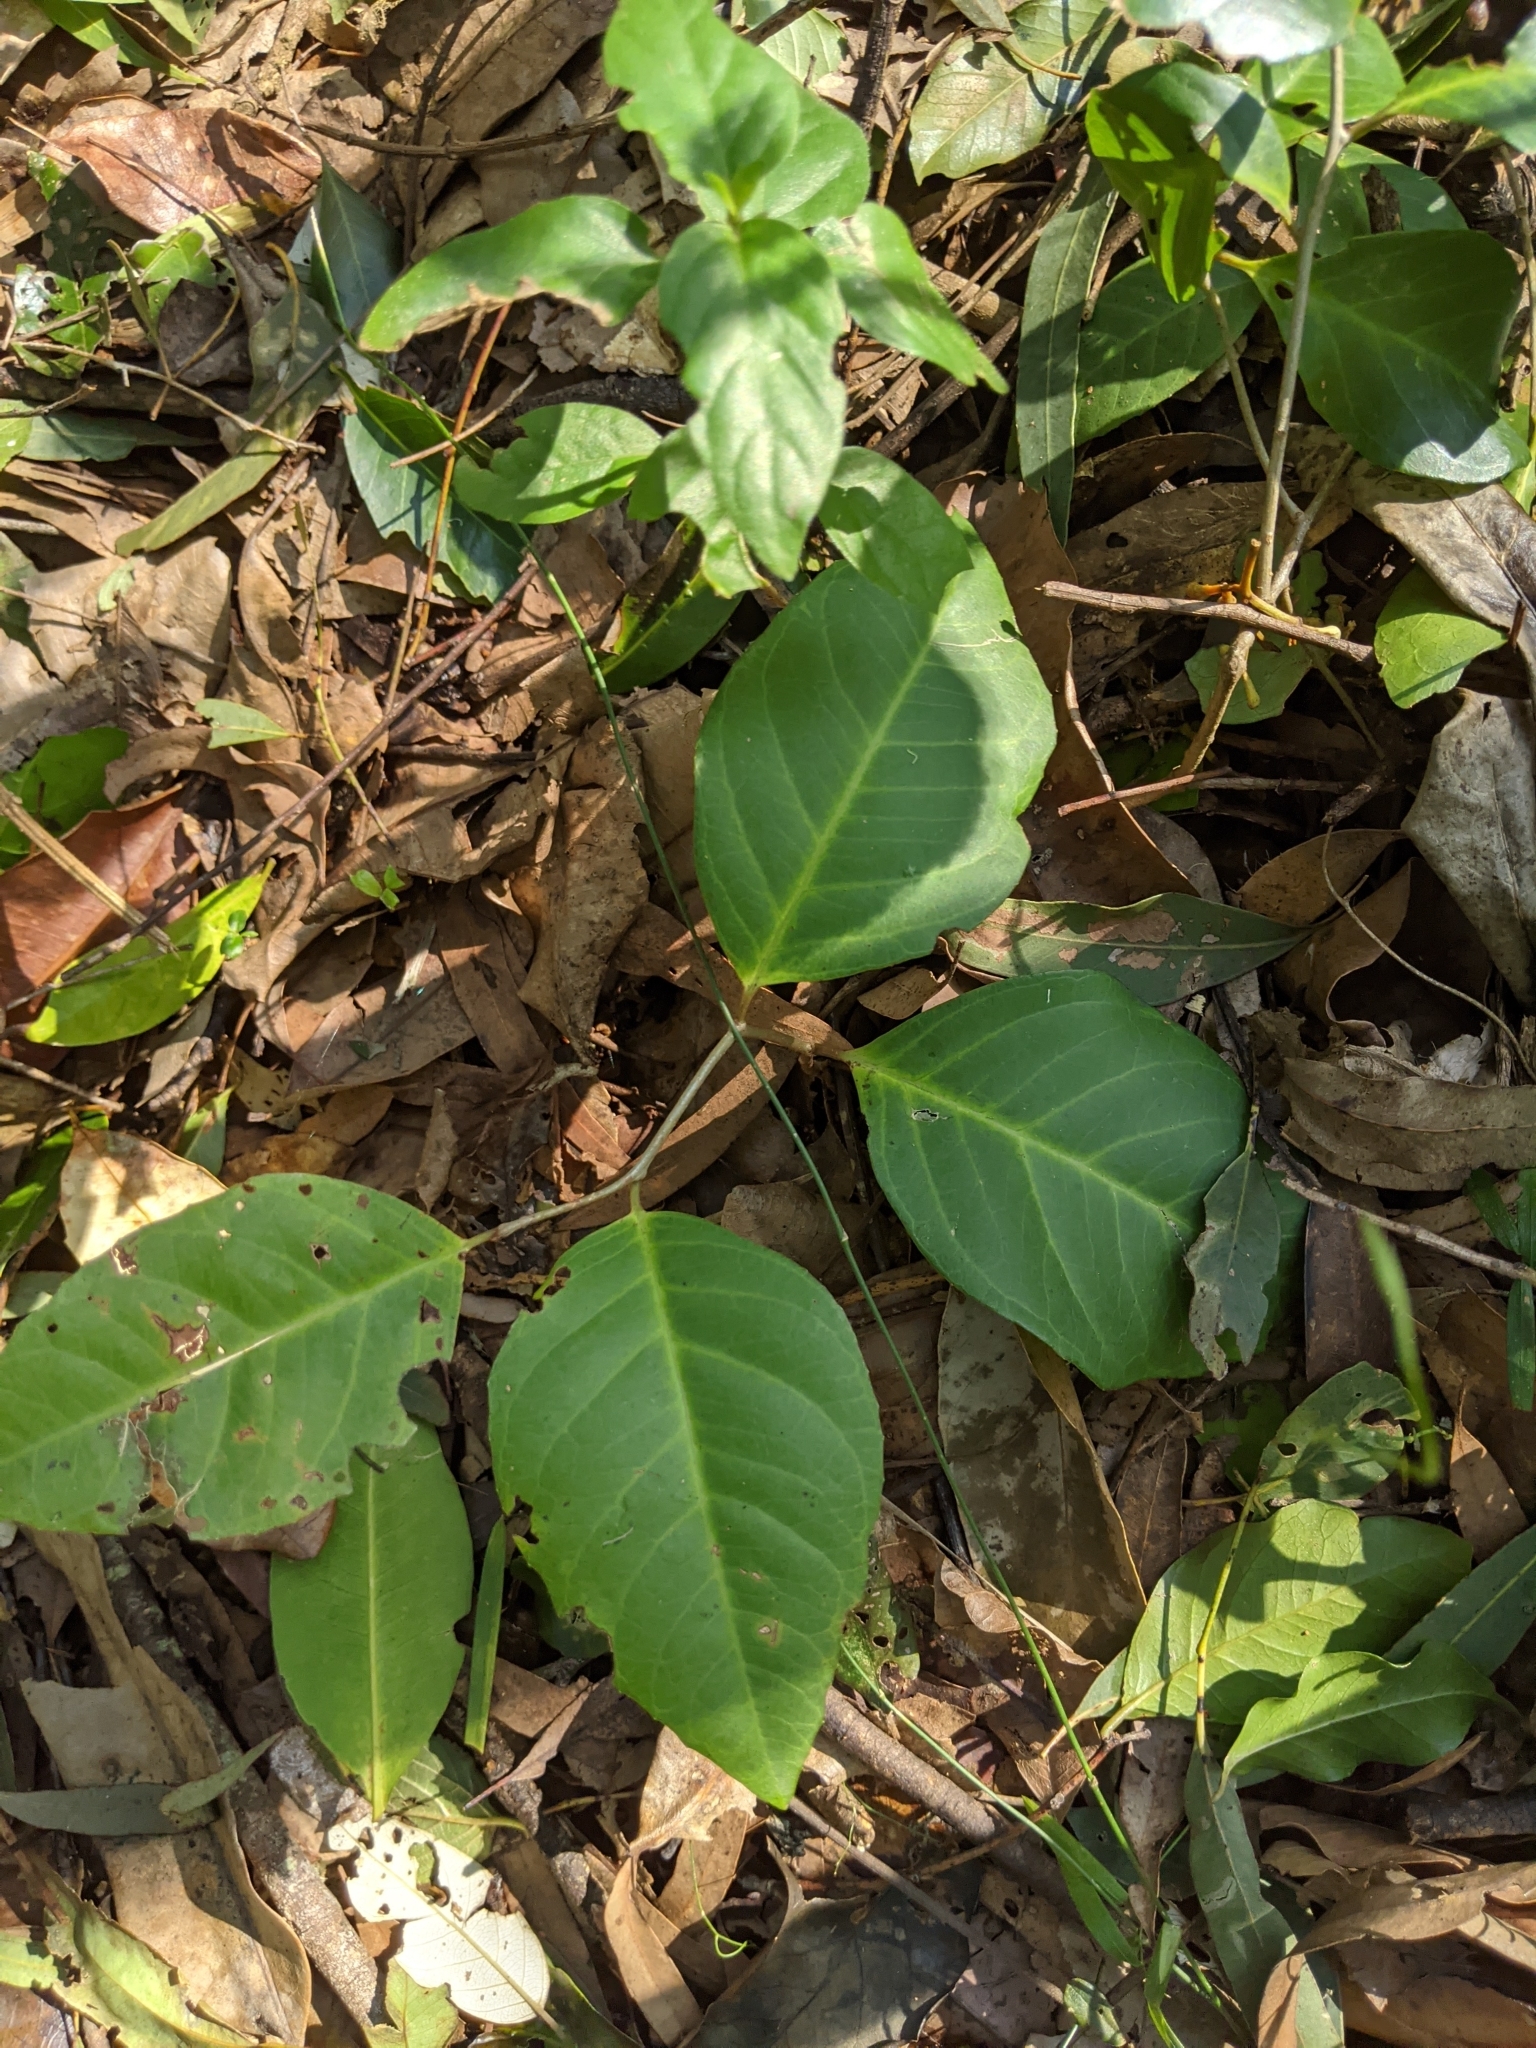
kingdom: Plantae
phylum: Tracheophyta
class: Magnoliopsida
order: Ericales
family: Primulaceae
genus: Embelia
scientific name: Embelia australiana
